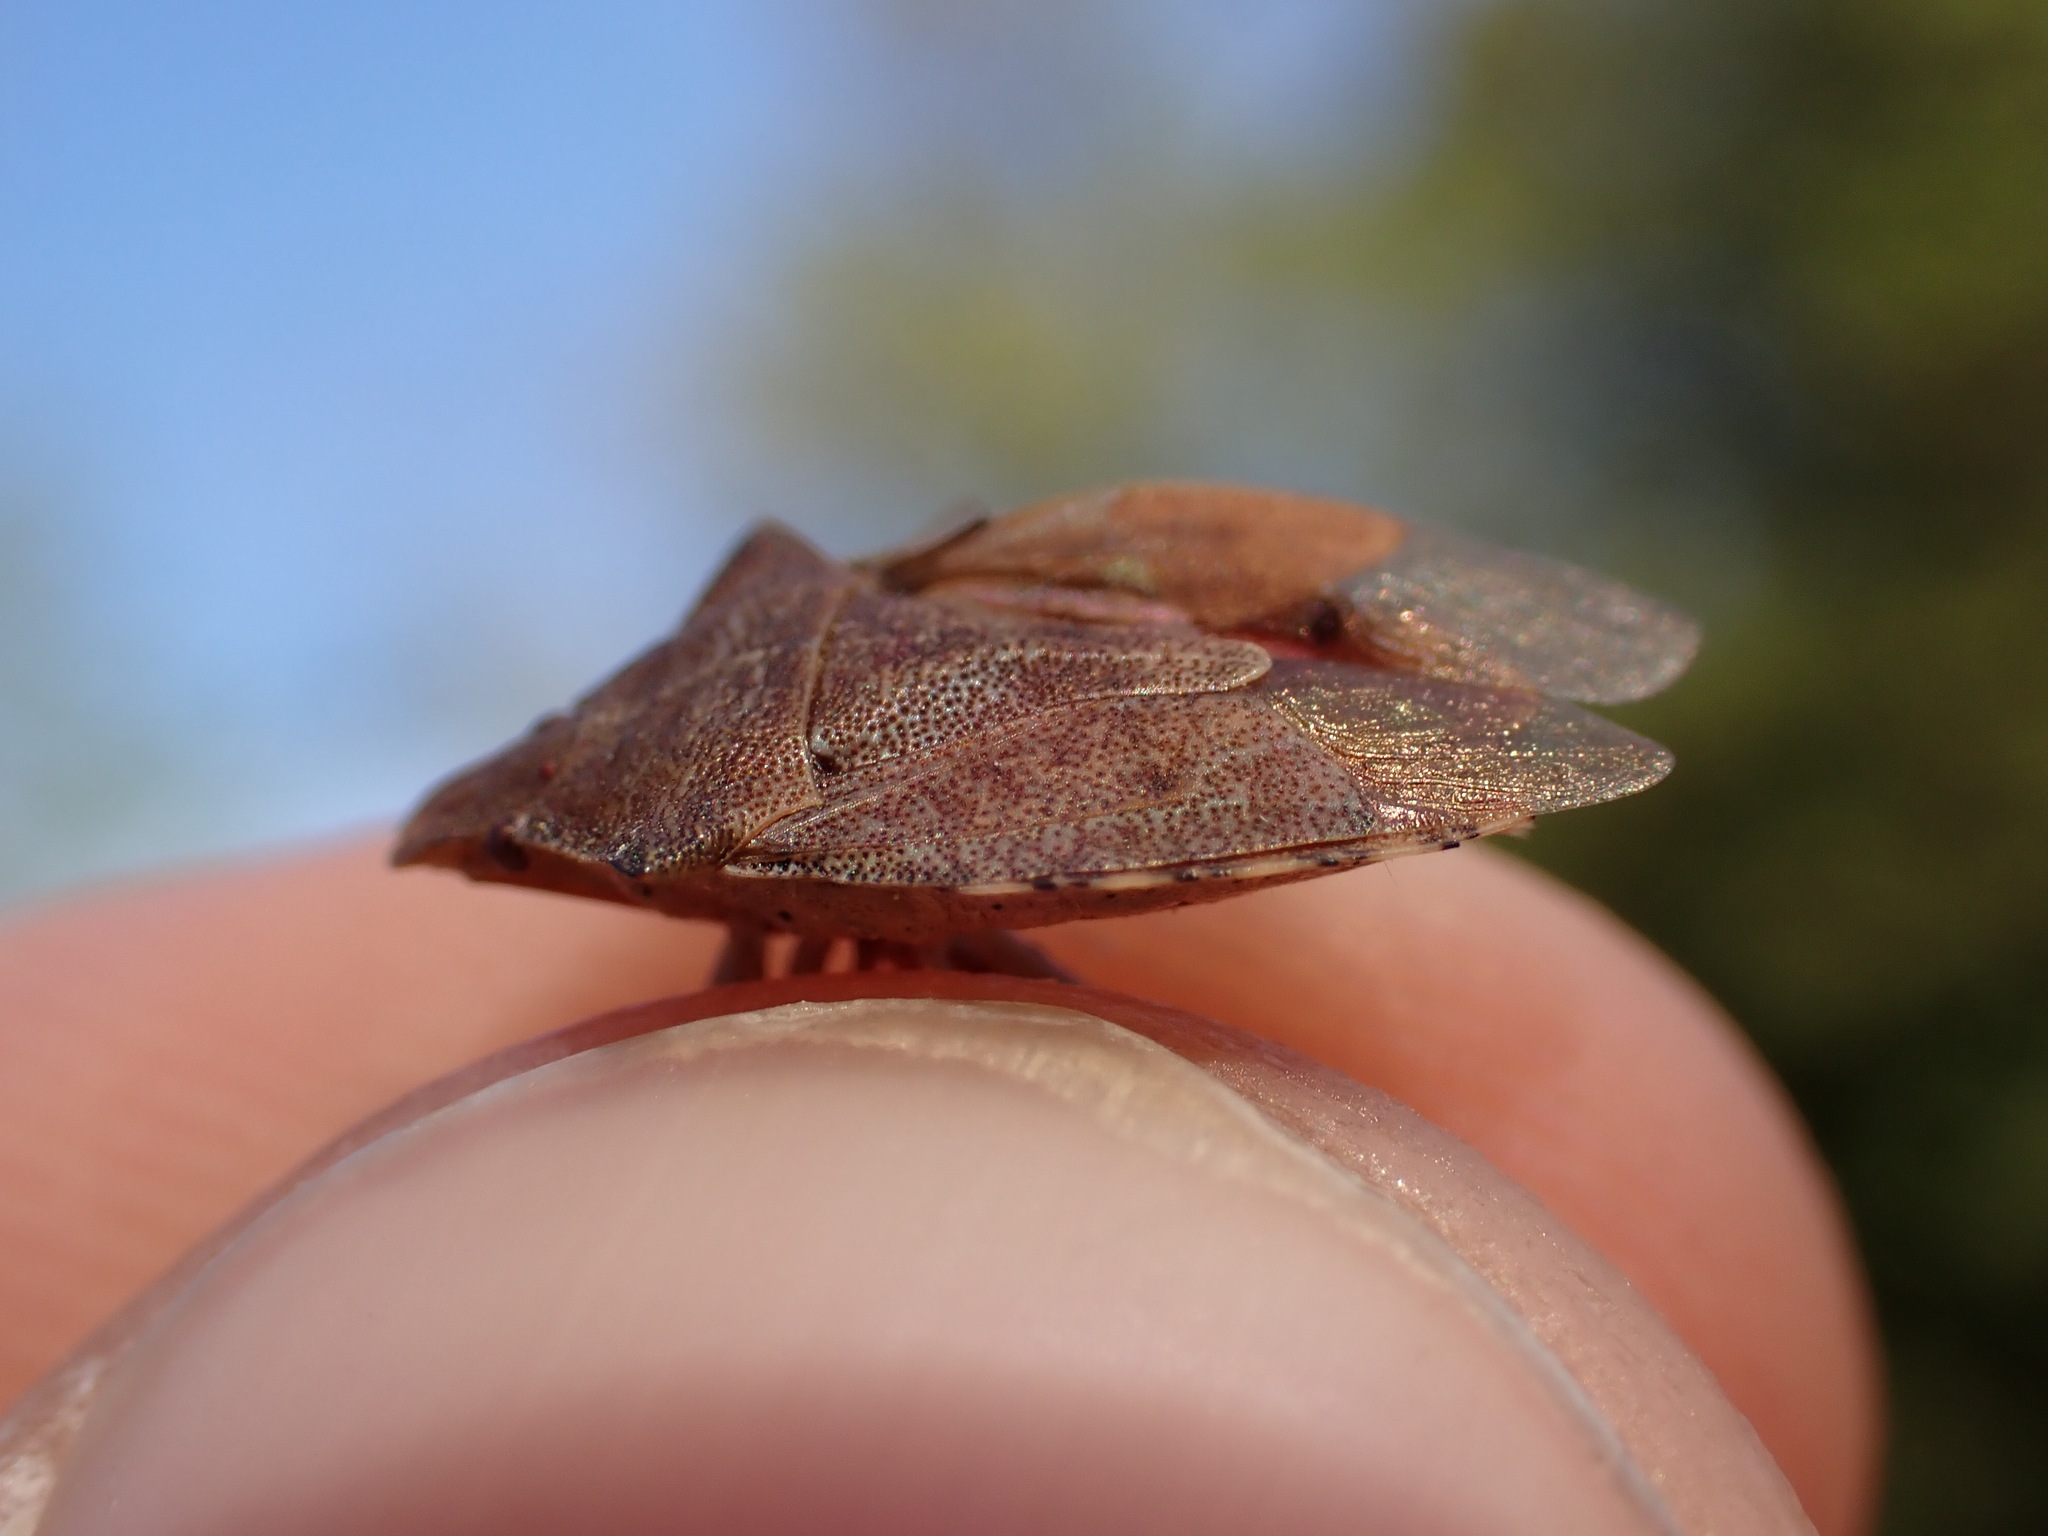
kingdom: Animalia
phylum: Arthropoda
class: Insecta
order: Hemiptera
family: Pentatomidae
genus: Arma
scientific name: Arma custos
